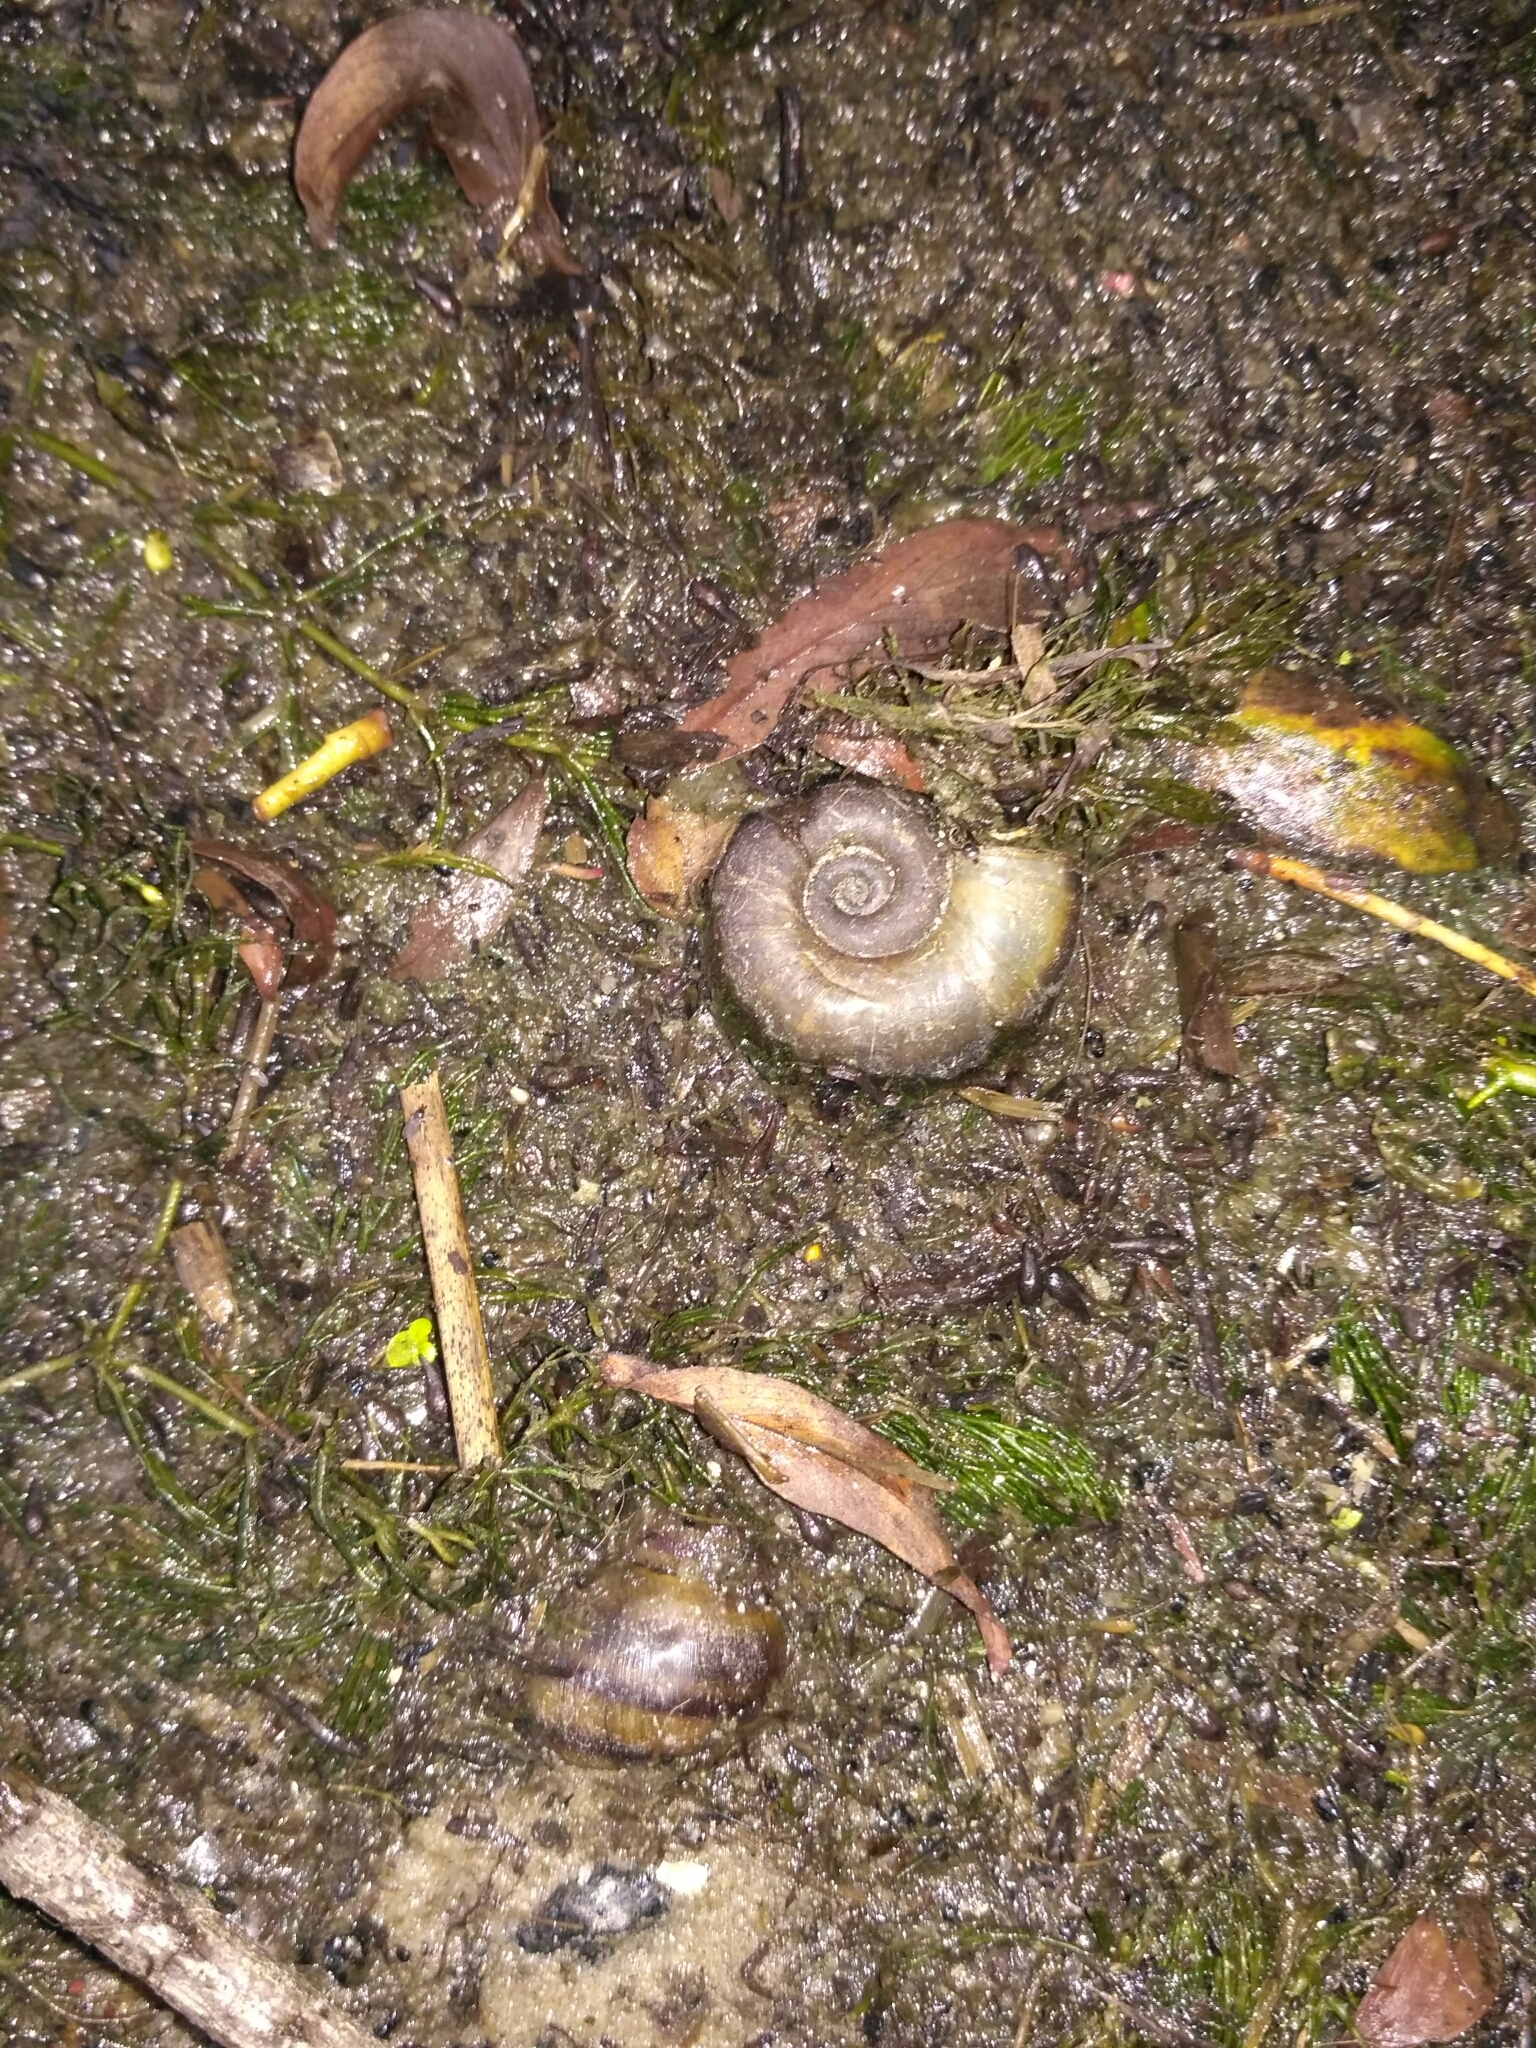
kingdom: Animalia
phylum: Mollusca
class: Gastropoda
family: Planorbidae
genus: Planorbarius
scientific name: Planorbarius corneus
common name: Great ramshorn
